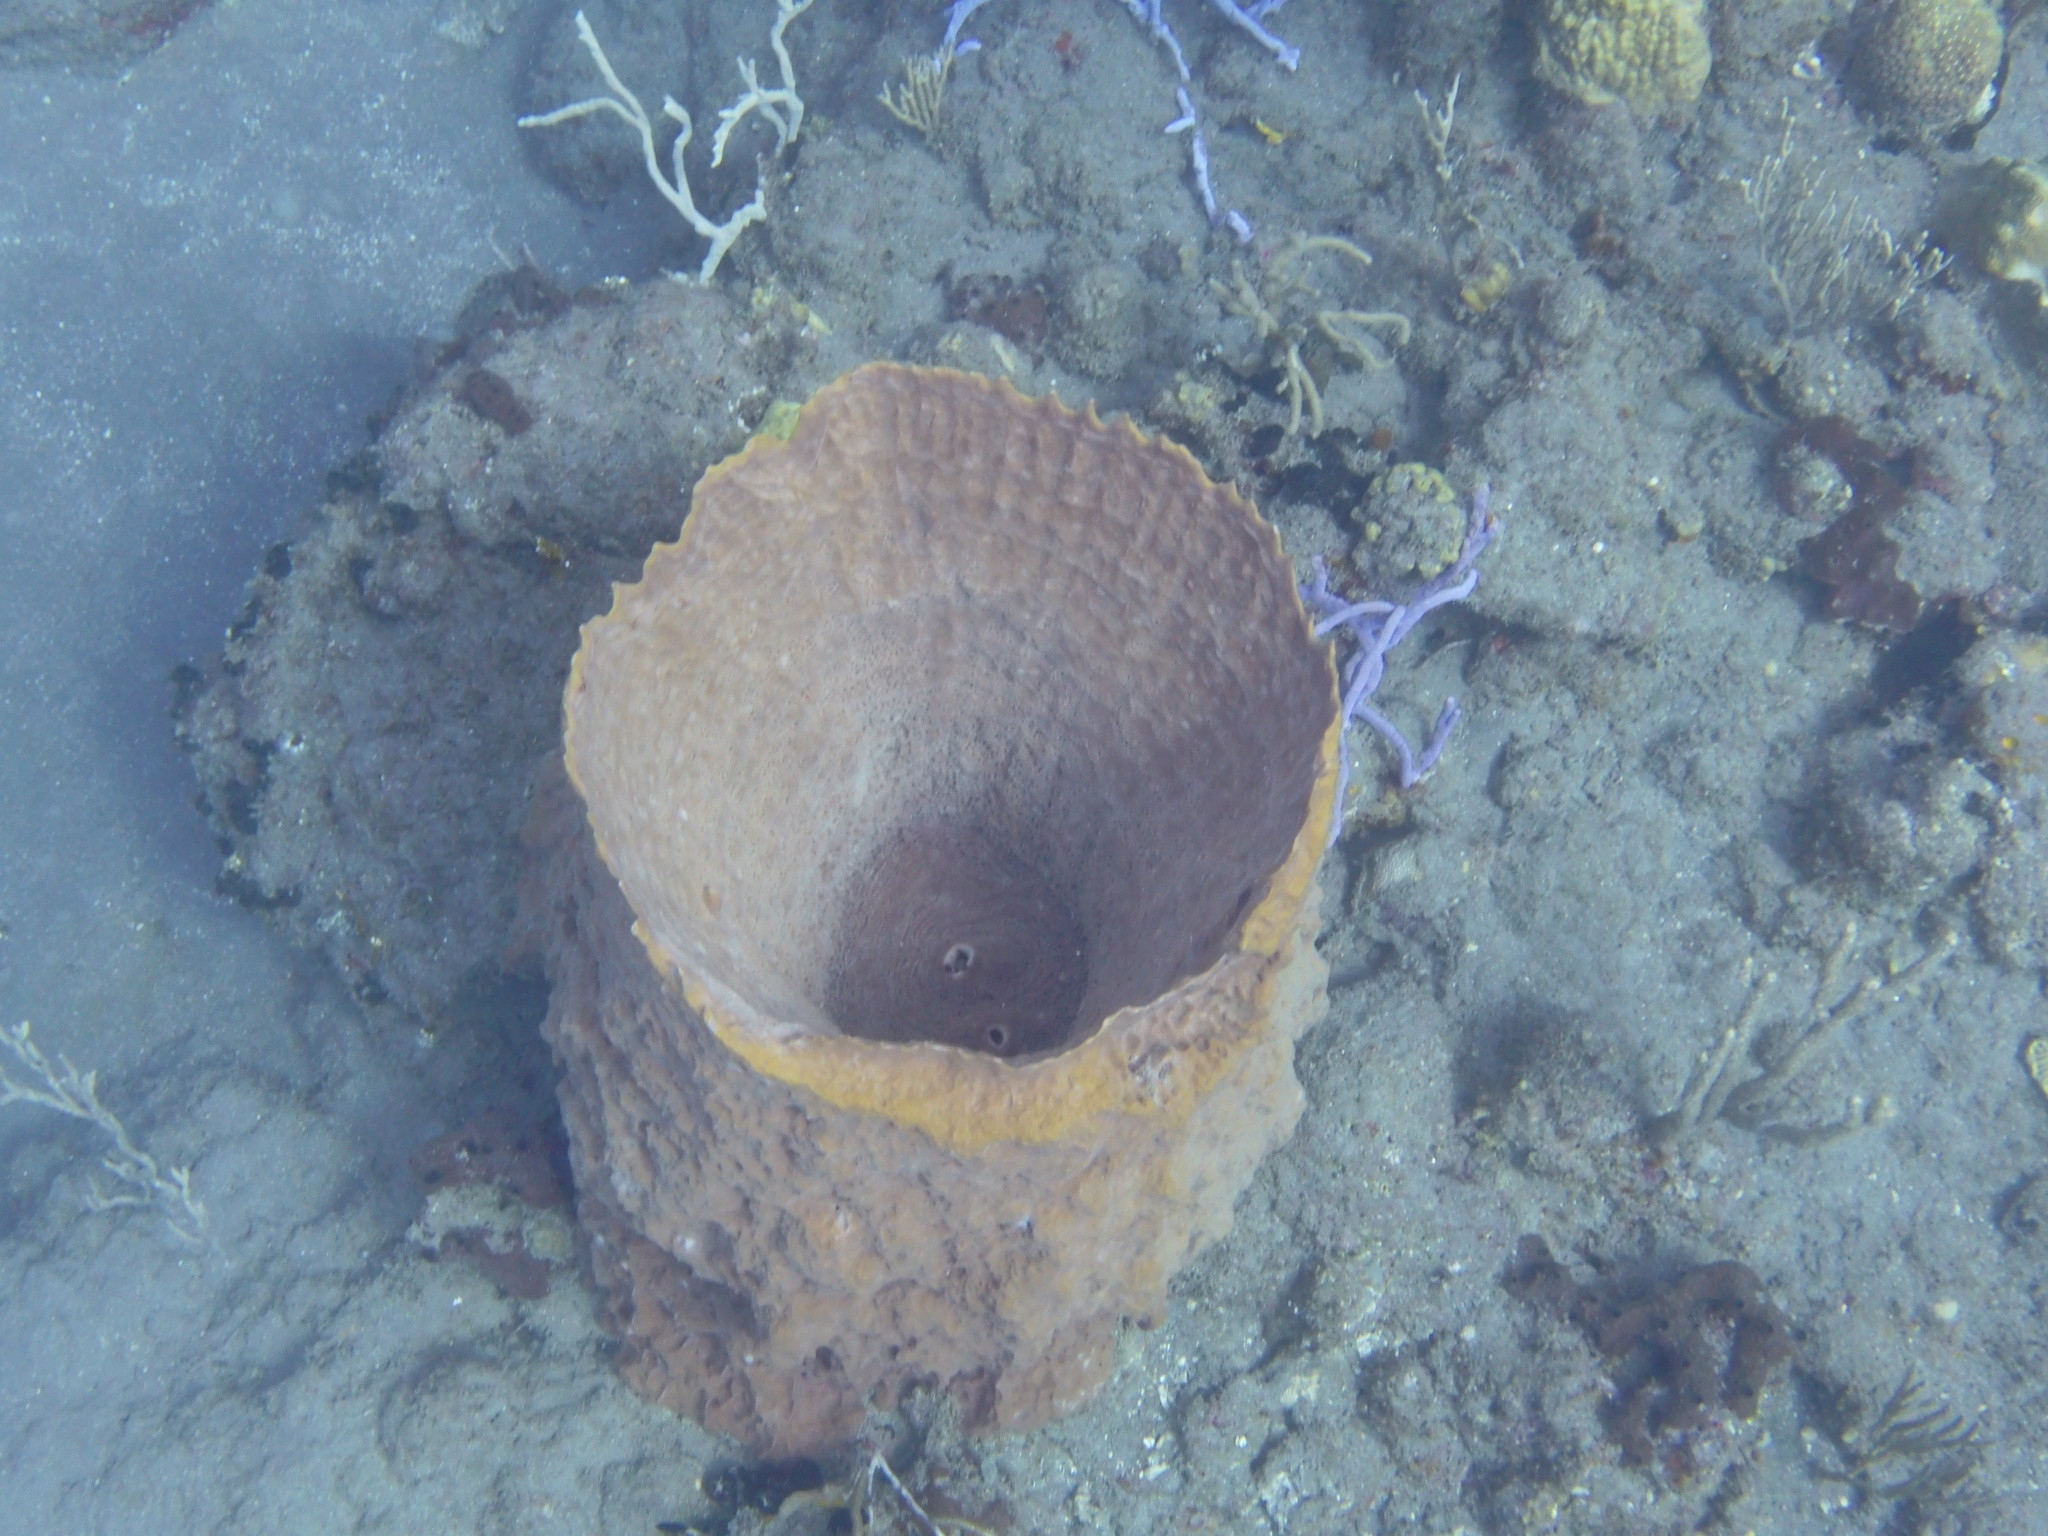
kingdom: Animalia
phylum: Porifera
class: Demospongiae
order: Haplosclerida
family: Petrosiidae
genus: Xestospongia
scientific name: Xestospongia muta
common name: Giant barrel sponge
